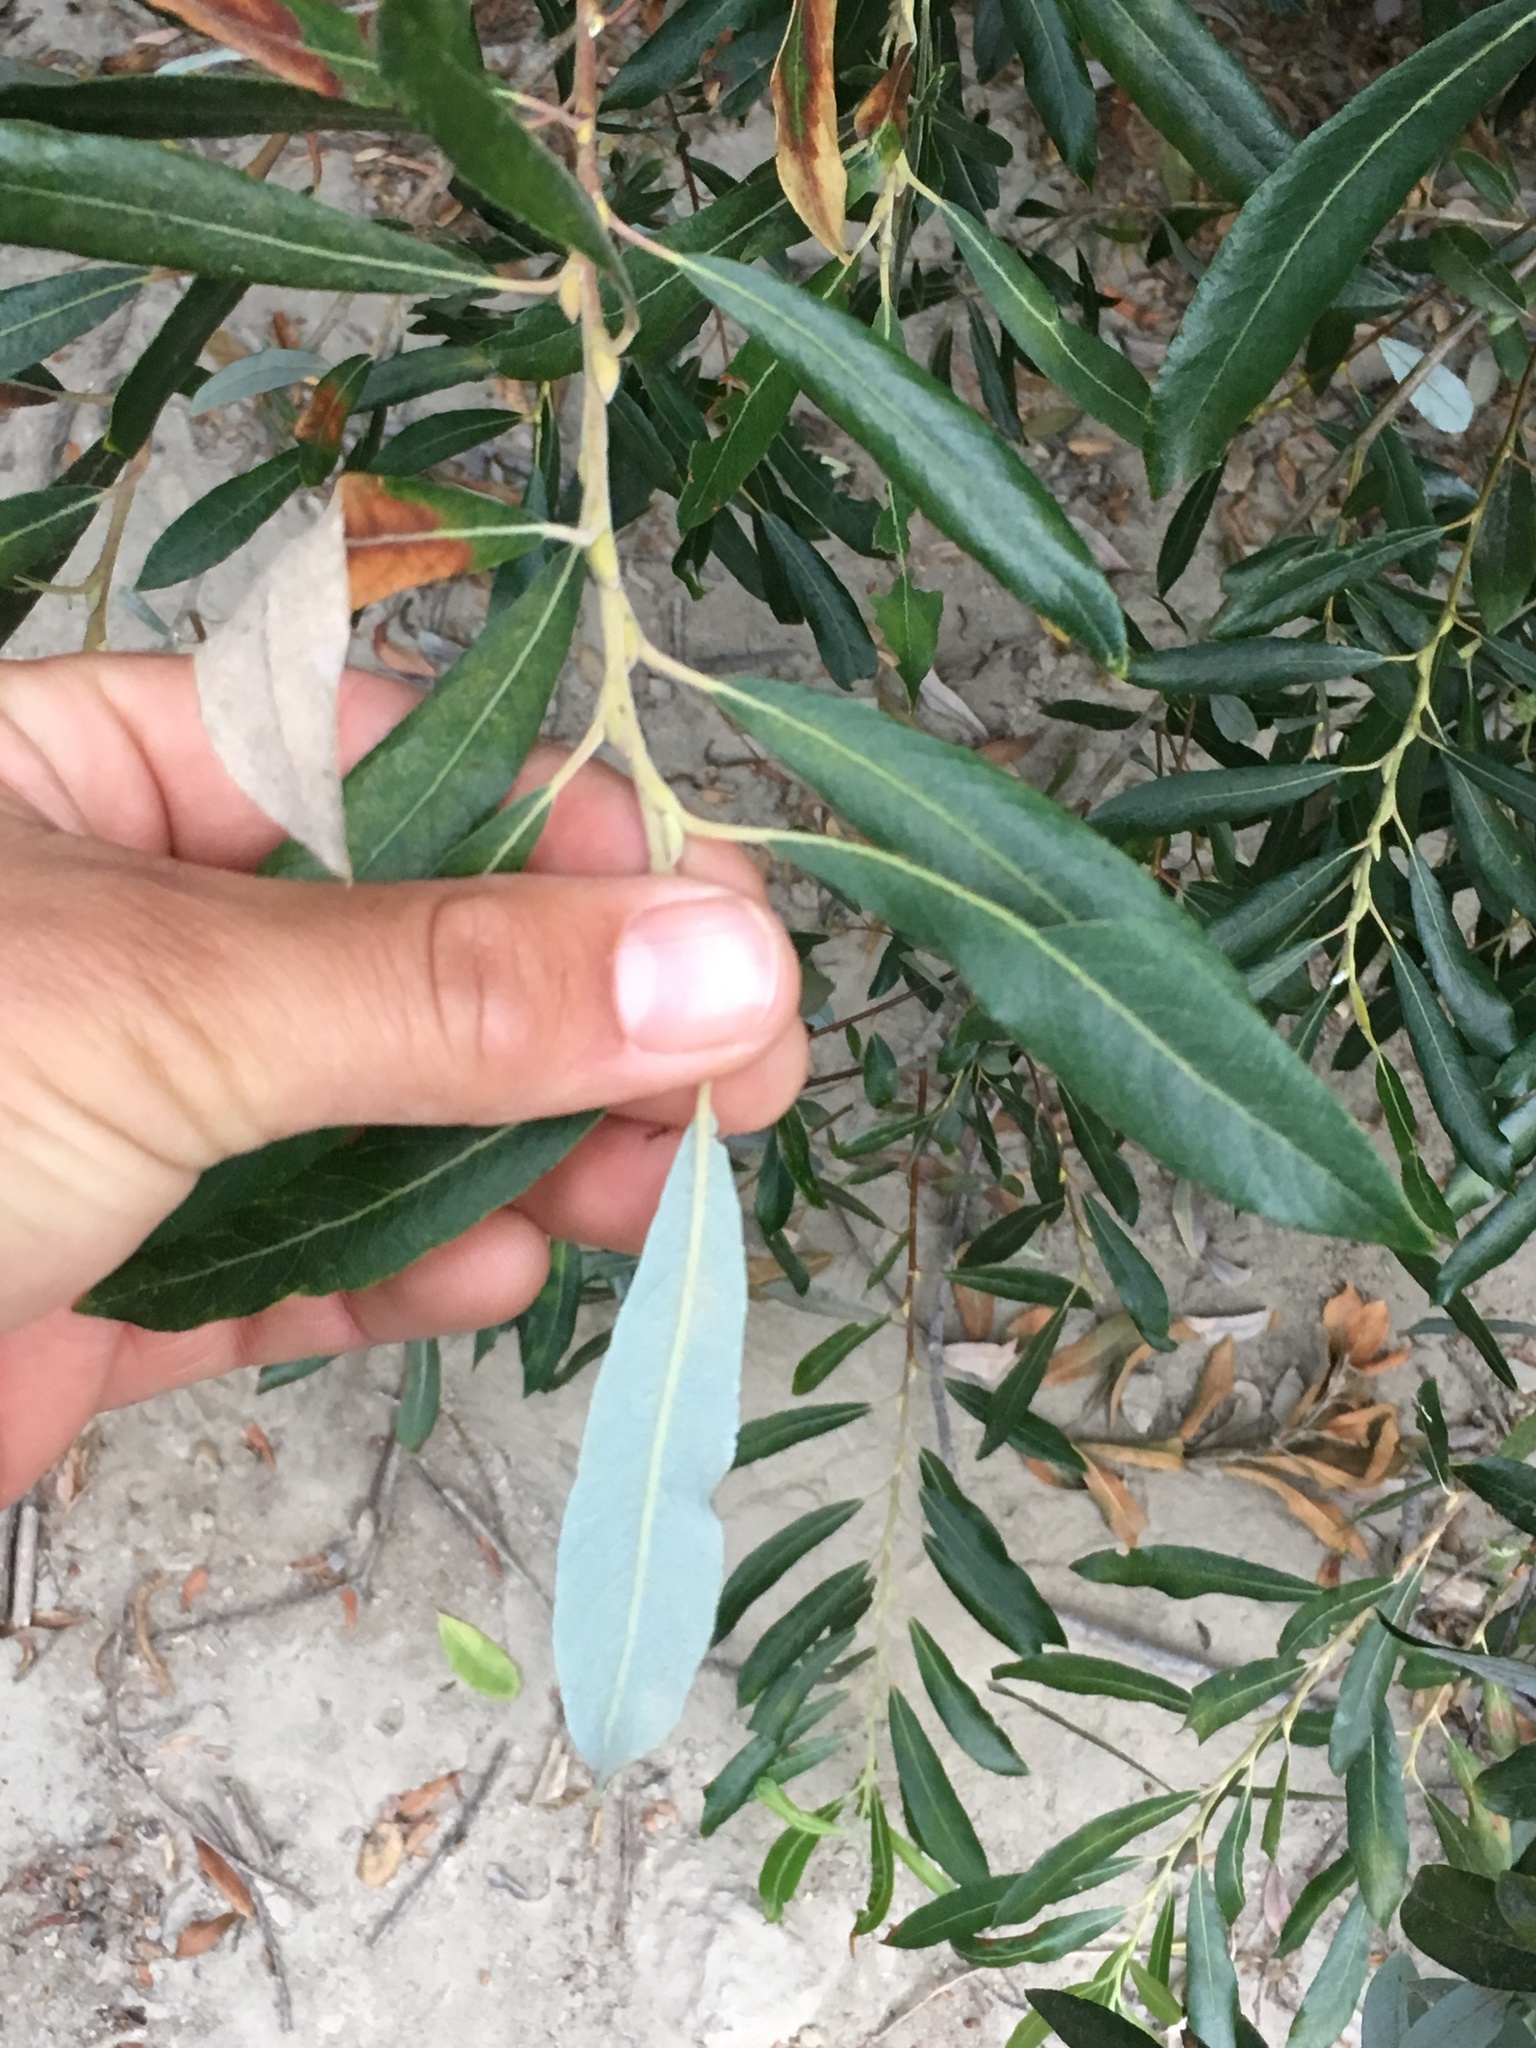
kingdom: Plantae
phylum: Tracheophyta
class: Magnoliopsida
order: Malpighiales
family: Salicaceae
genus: Salix
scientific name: Salix lasiolepis
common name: Arroyo willow
